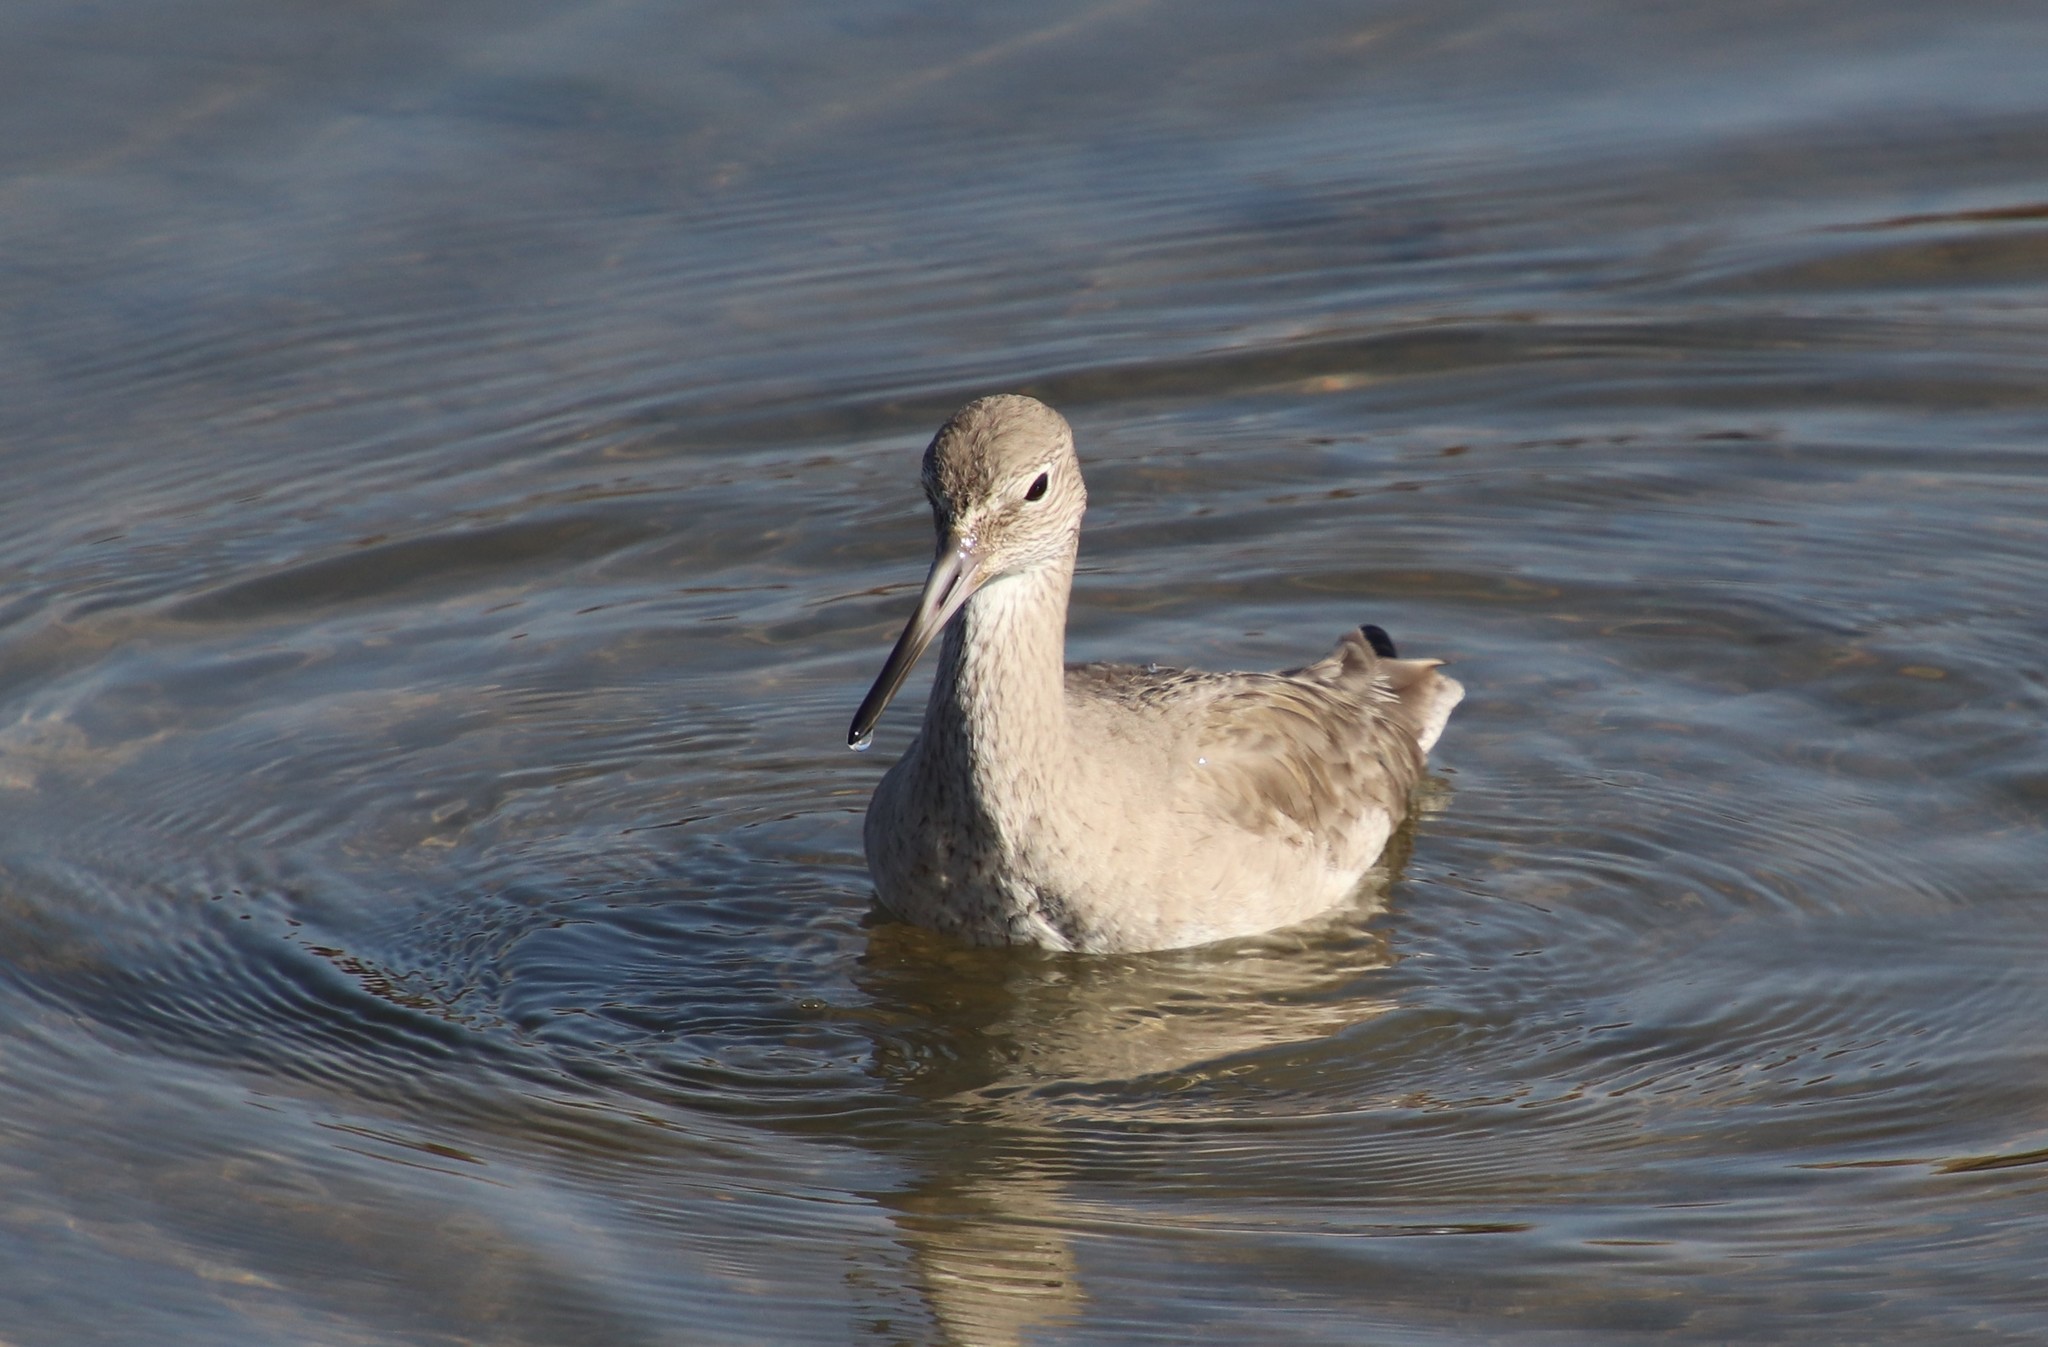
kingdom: Animalia
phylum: Chordata
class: Aves
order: Charadriiformes
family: Scolopacidae
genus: Tringa
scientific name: Tringa semipalmata
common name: Willet
